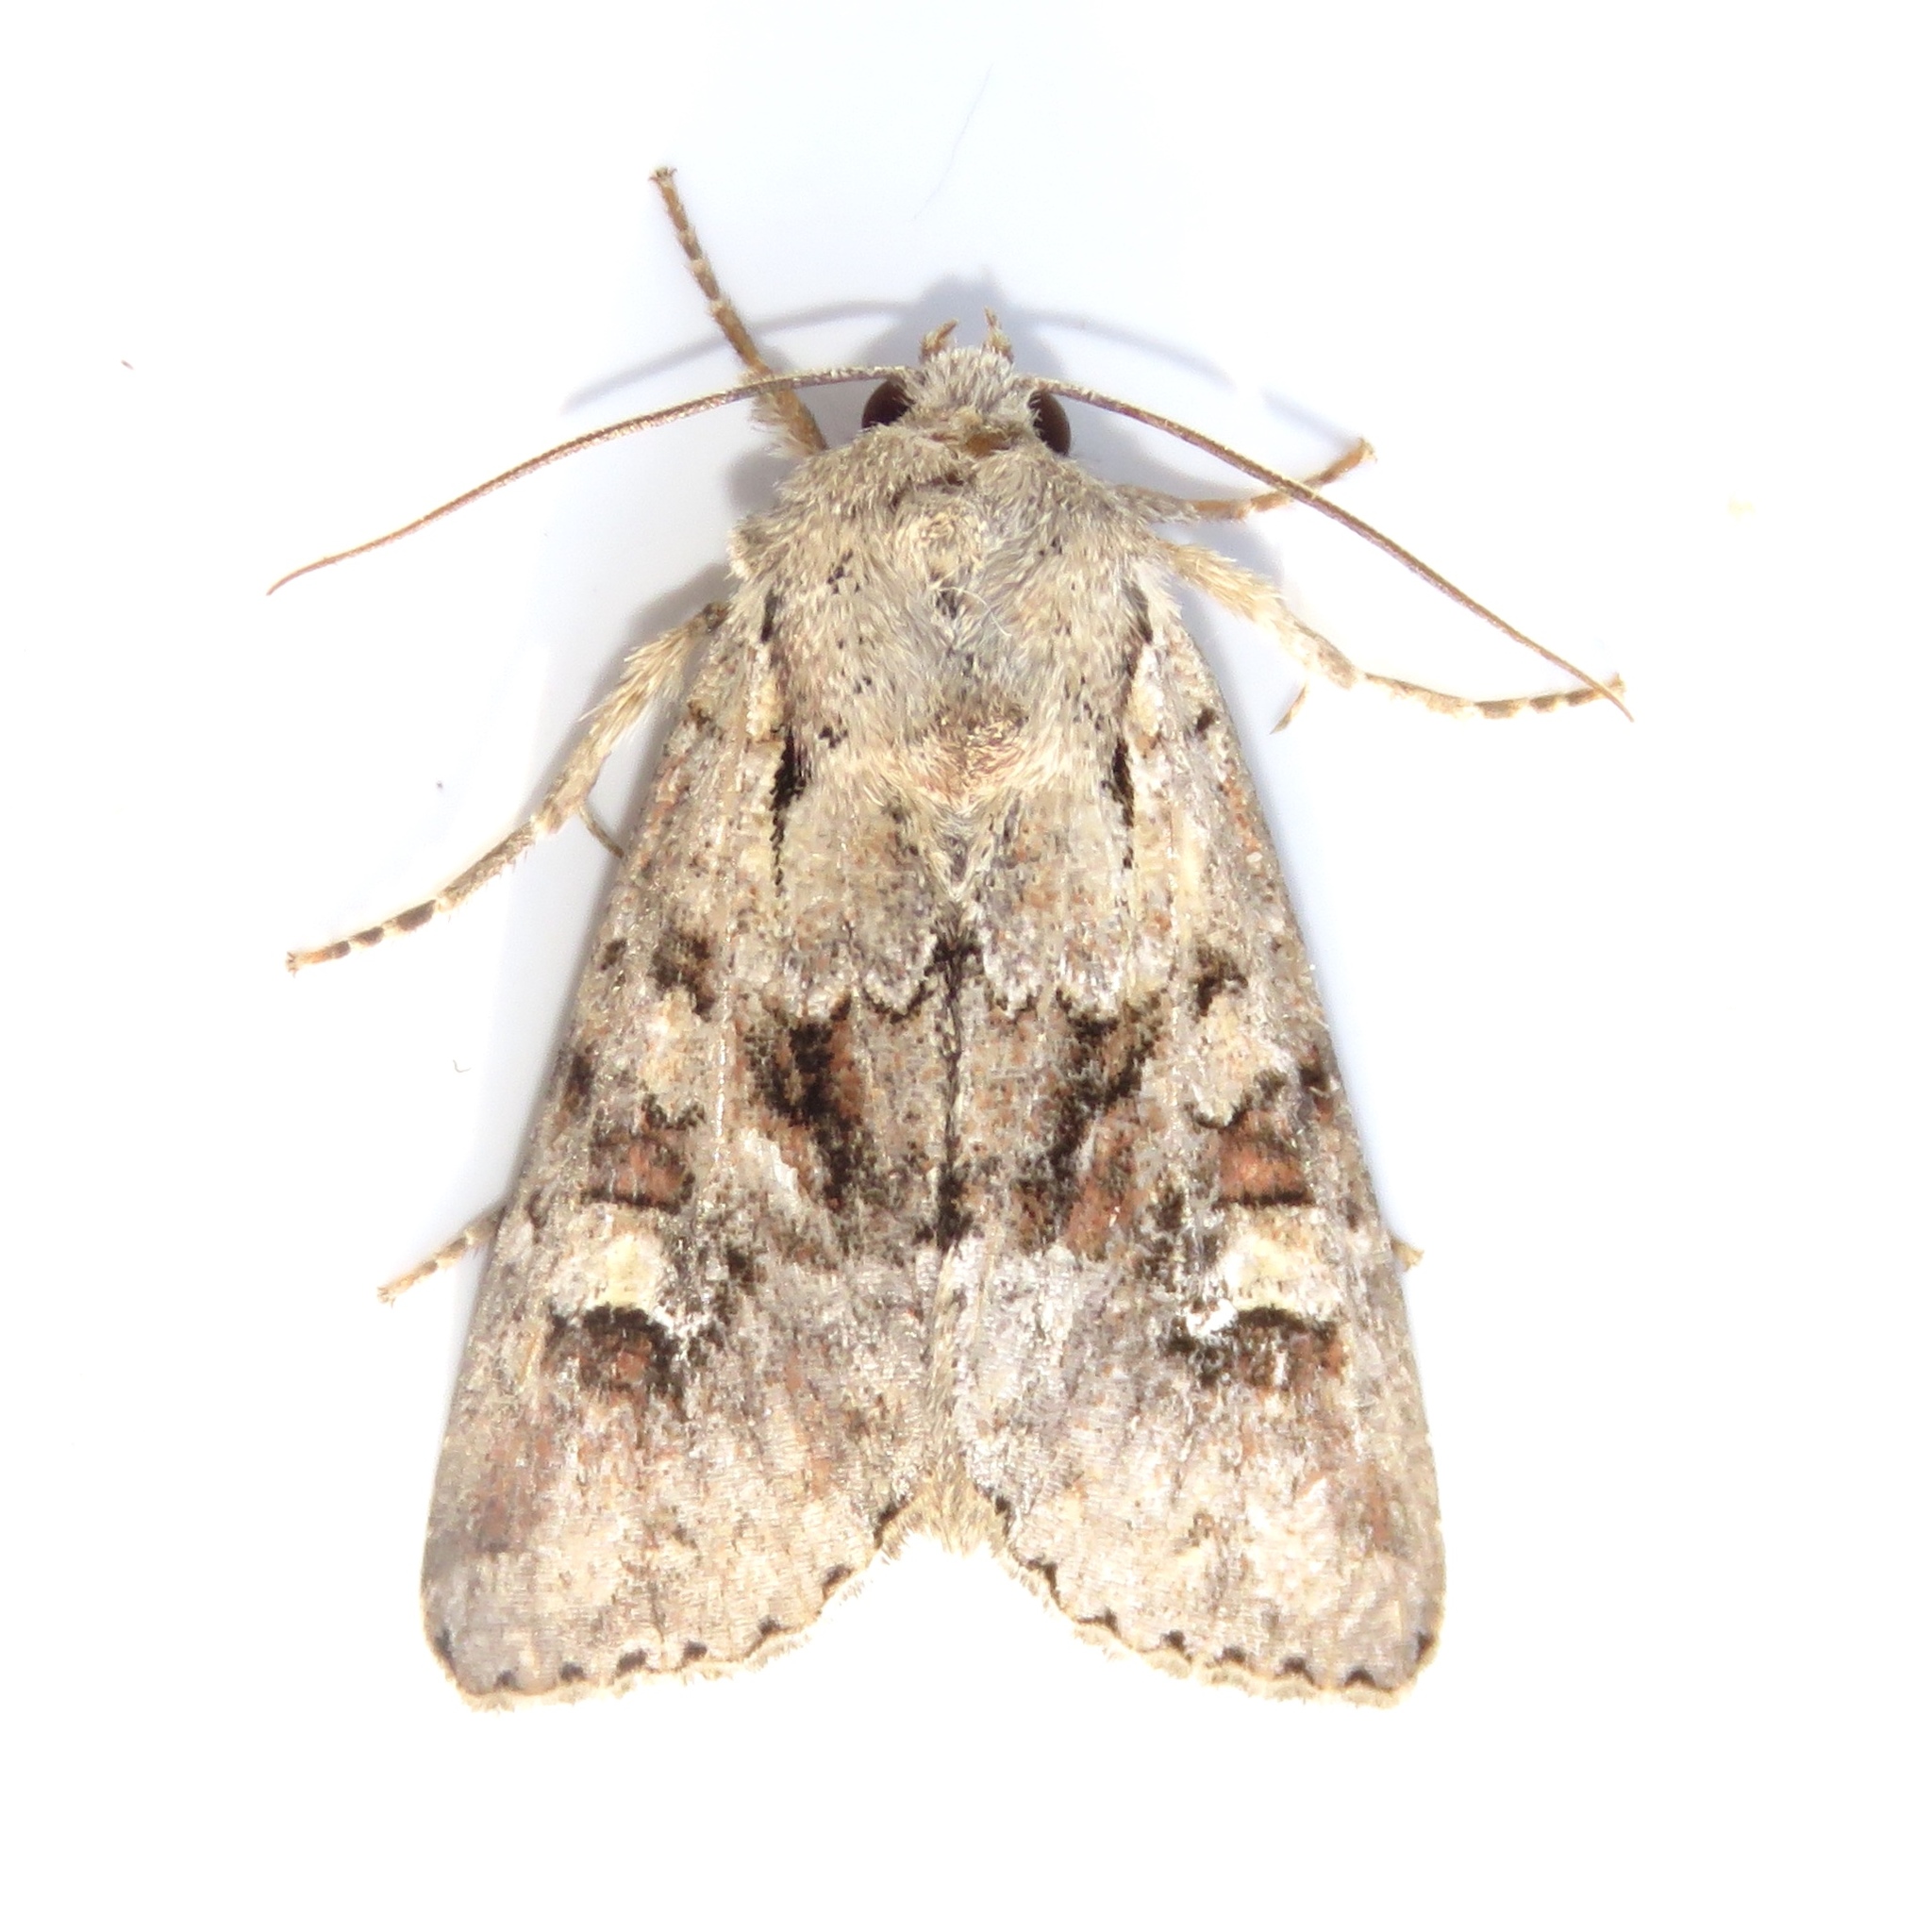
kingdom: Animalia
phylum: Arthropoda
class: Insecta
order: Lepidoptera
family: Noctuidae
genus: Apamea
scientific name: Apamea sordens
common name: Rustic shoulder-knot
